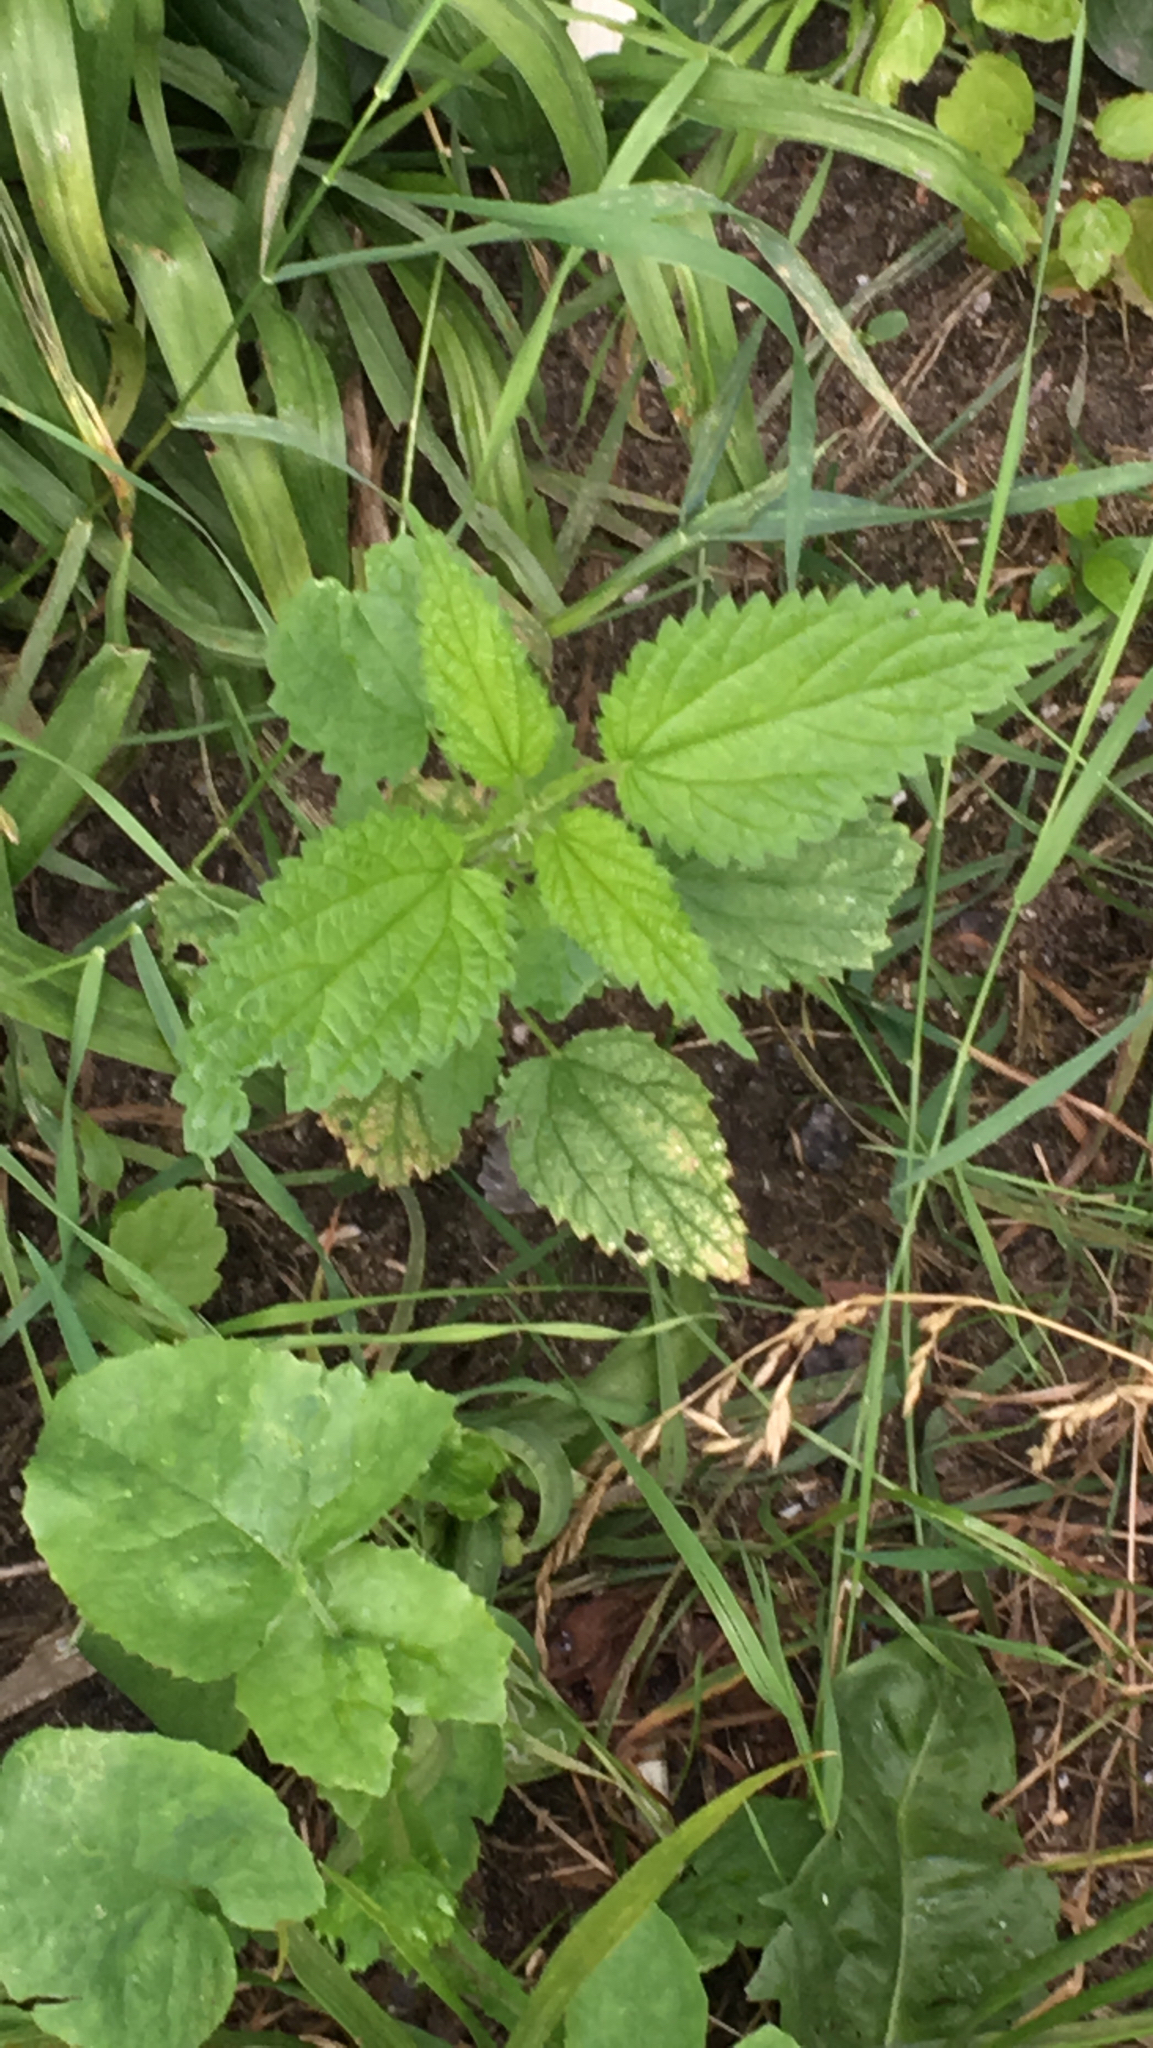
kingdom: Plantae
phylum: Tracheophyta
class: Magnoliopsida
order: Rosales
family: Urticaceae
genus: Urtica
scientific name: Urtica dioica
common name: Common nettle
